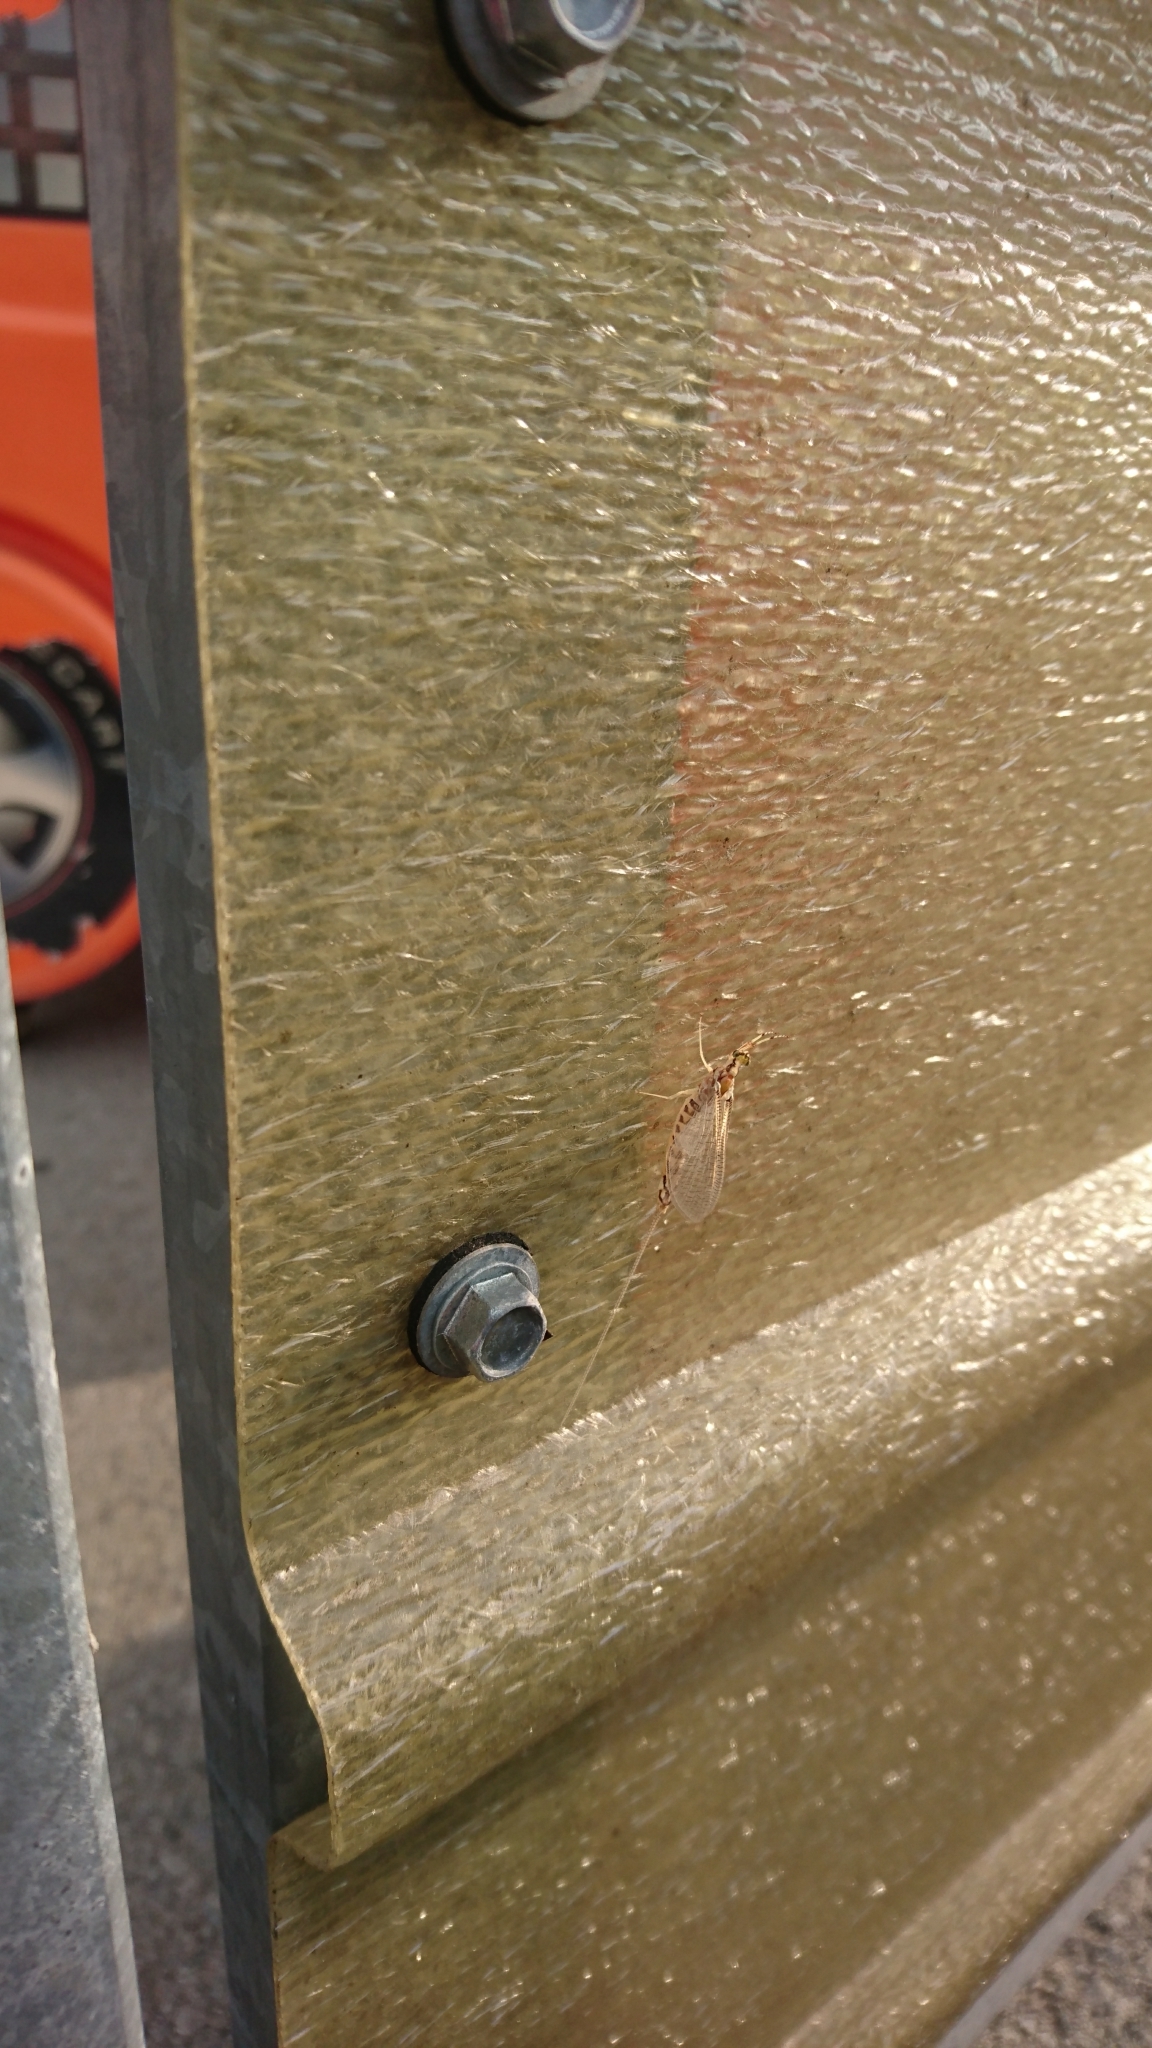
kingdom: Animalia
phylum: Arthropoda
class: Insecta
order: Ephemeroptera
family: Ephemeridae
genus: Hexagenia
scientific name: Hexagenia limbata
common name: Giant mayfly
